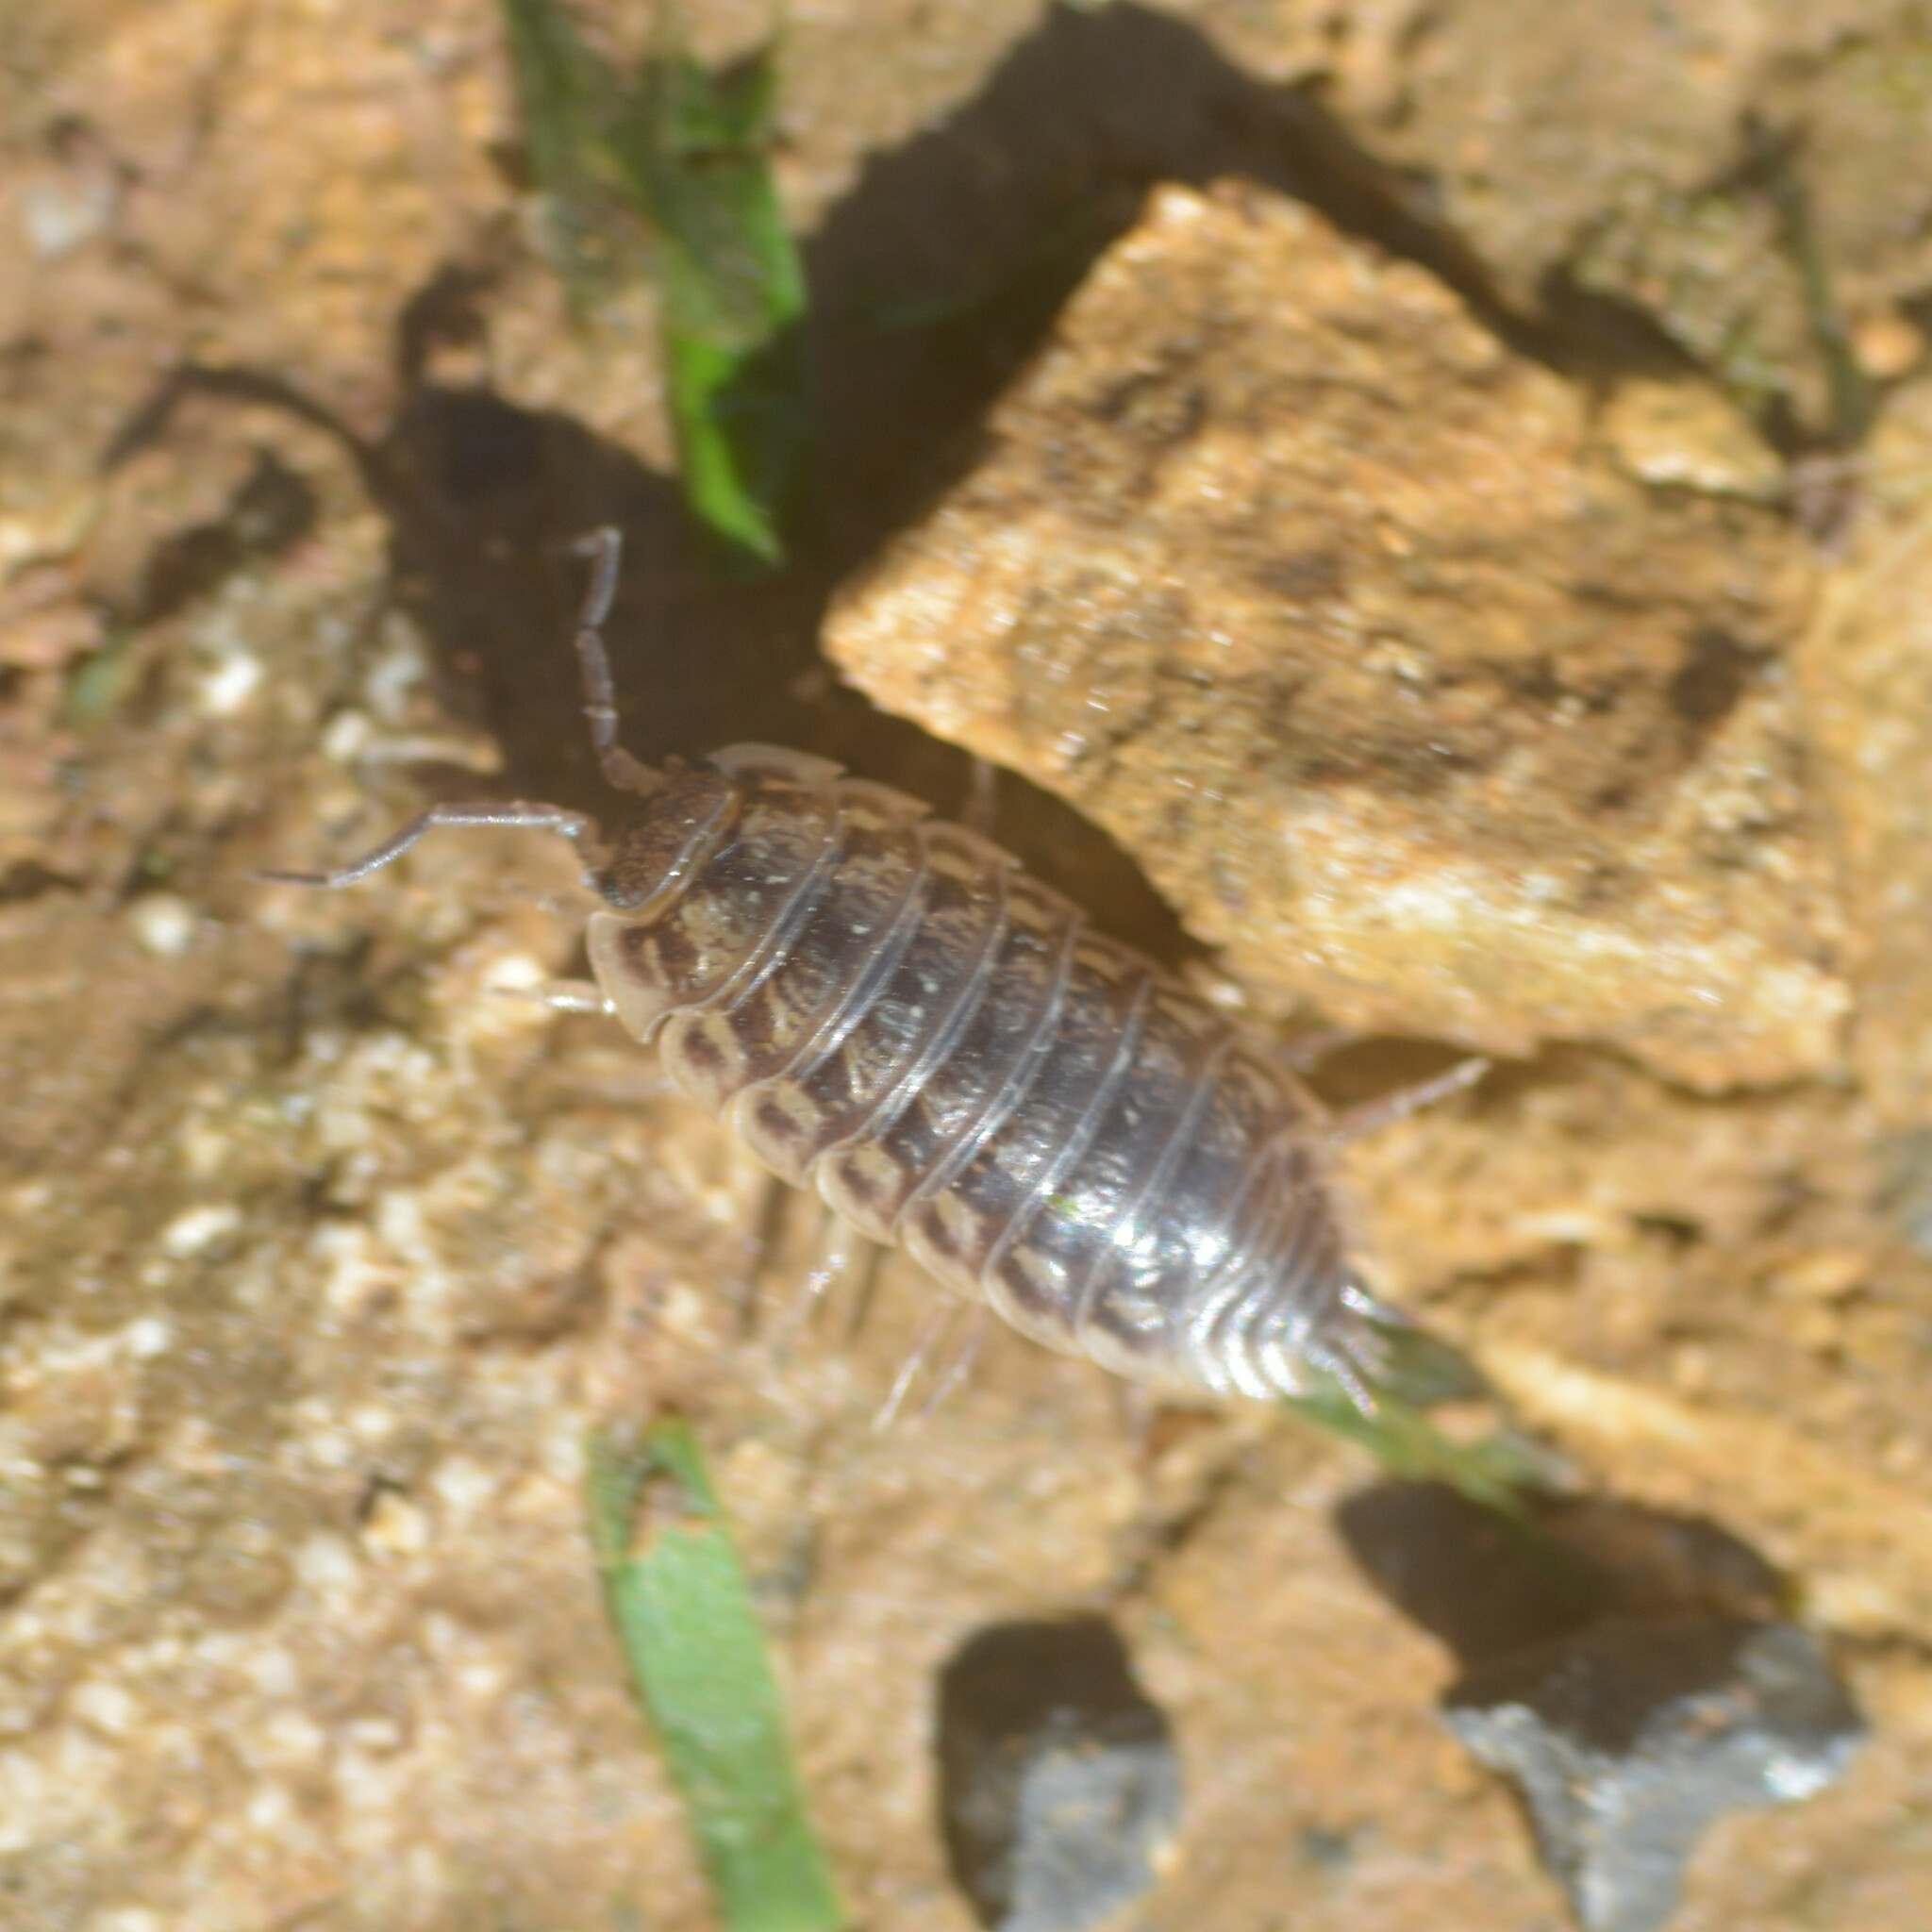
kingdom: Animalia
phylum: Arthropoda
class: Malacostraca
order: Isopoda
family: Oniscidae
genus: Oniscus
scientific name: Oniscus asellus
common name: Common shiny woodlouse
